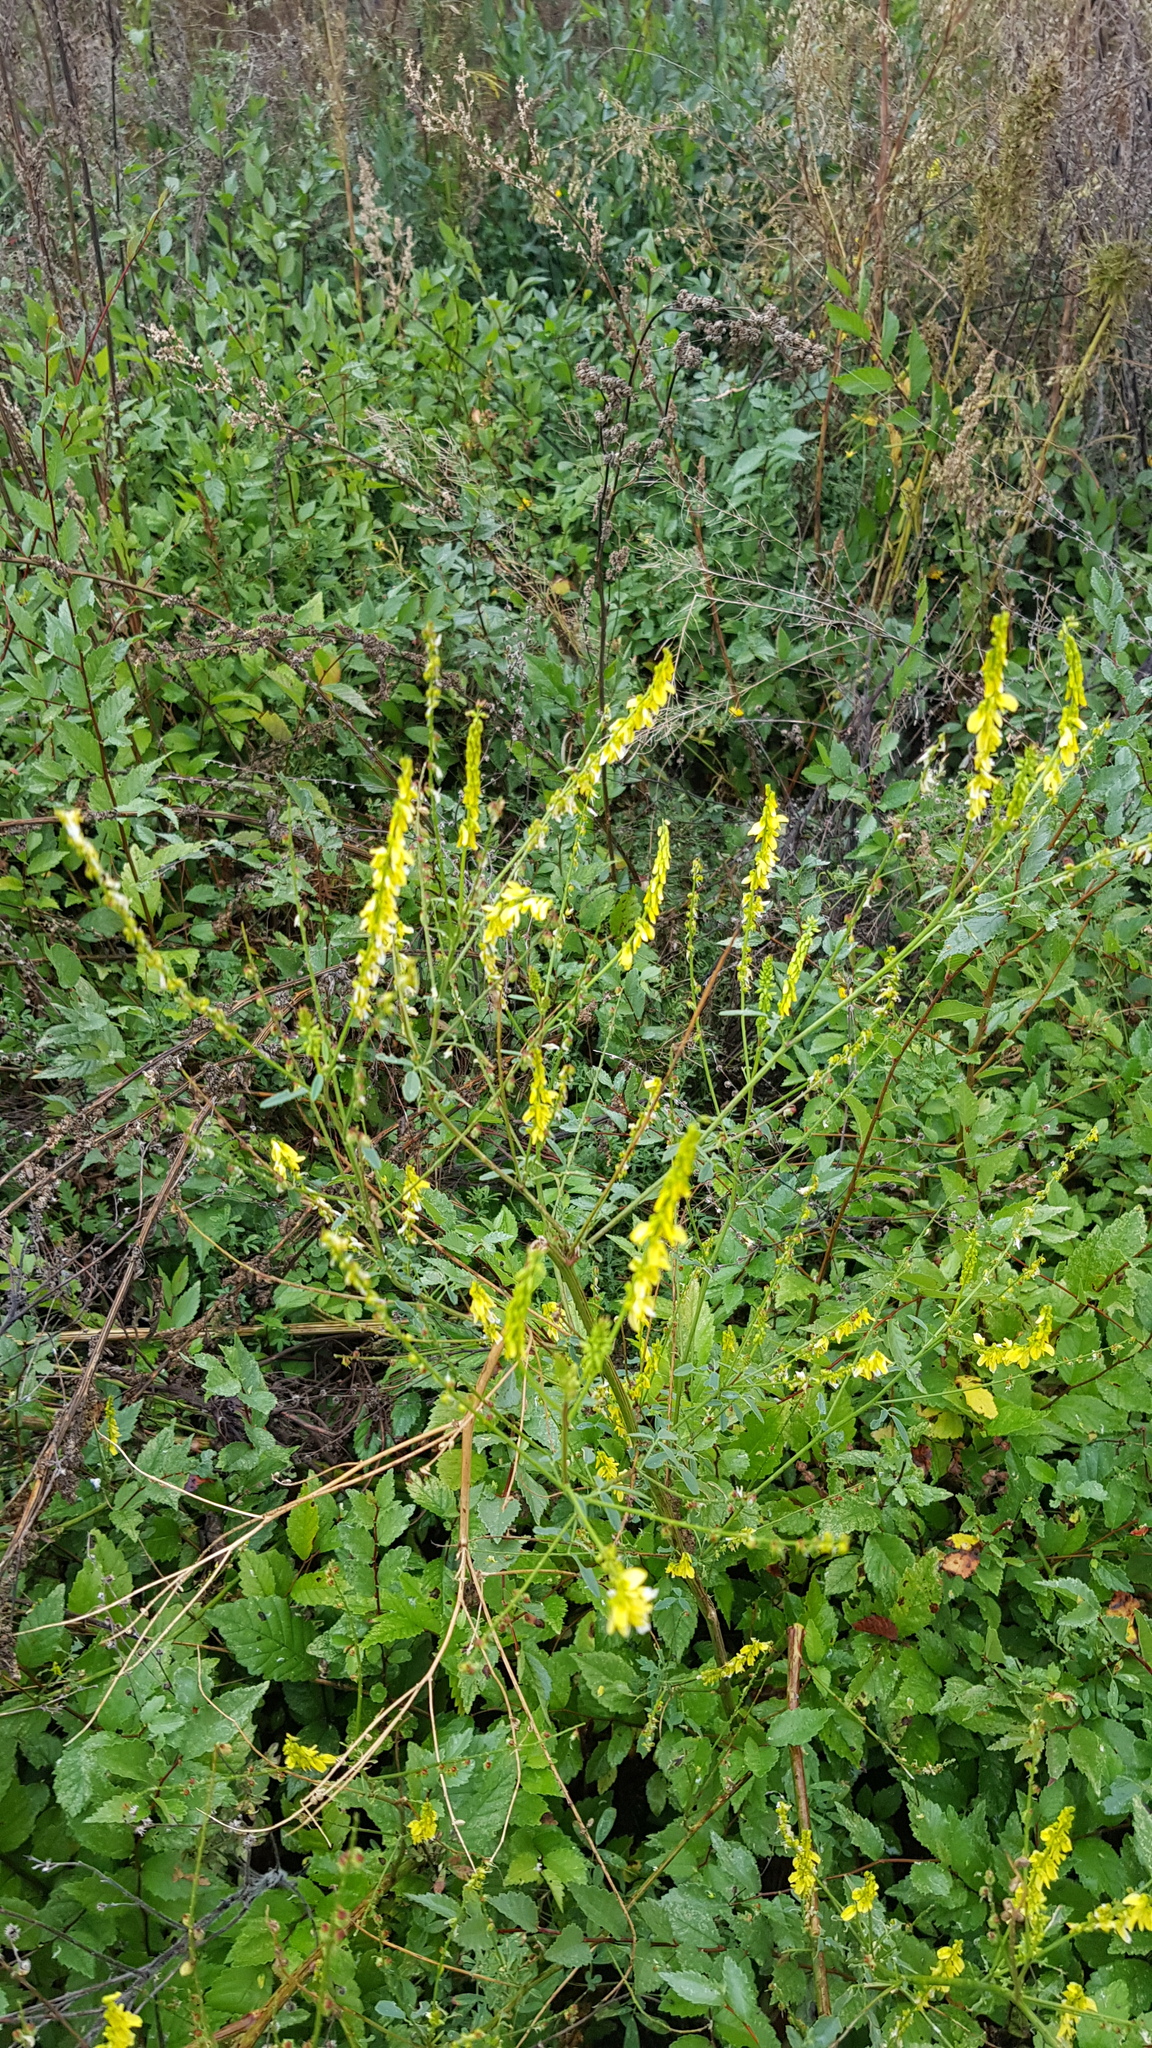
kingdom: Plantae
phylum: Tracheophyta
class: Magnoliopsida
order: Fabales
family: Fabaceae
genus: Melilotus
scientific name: Melilotus officinalis
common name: Sweetclover
